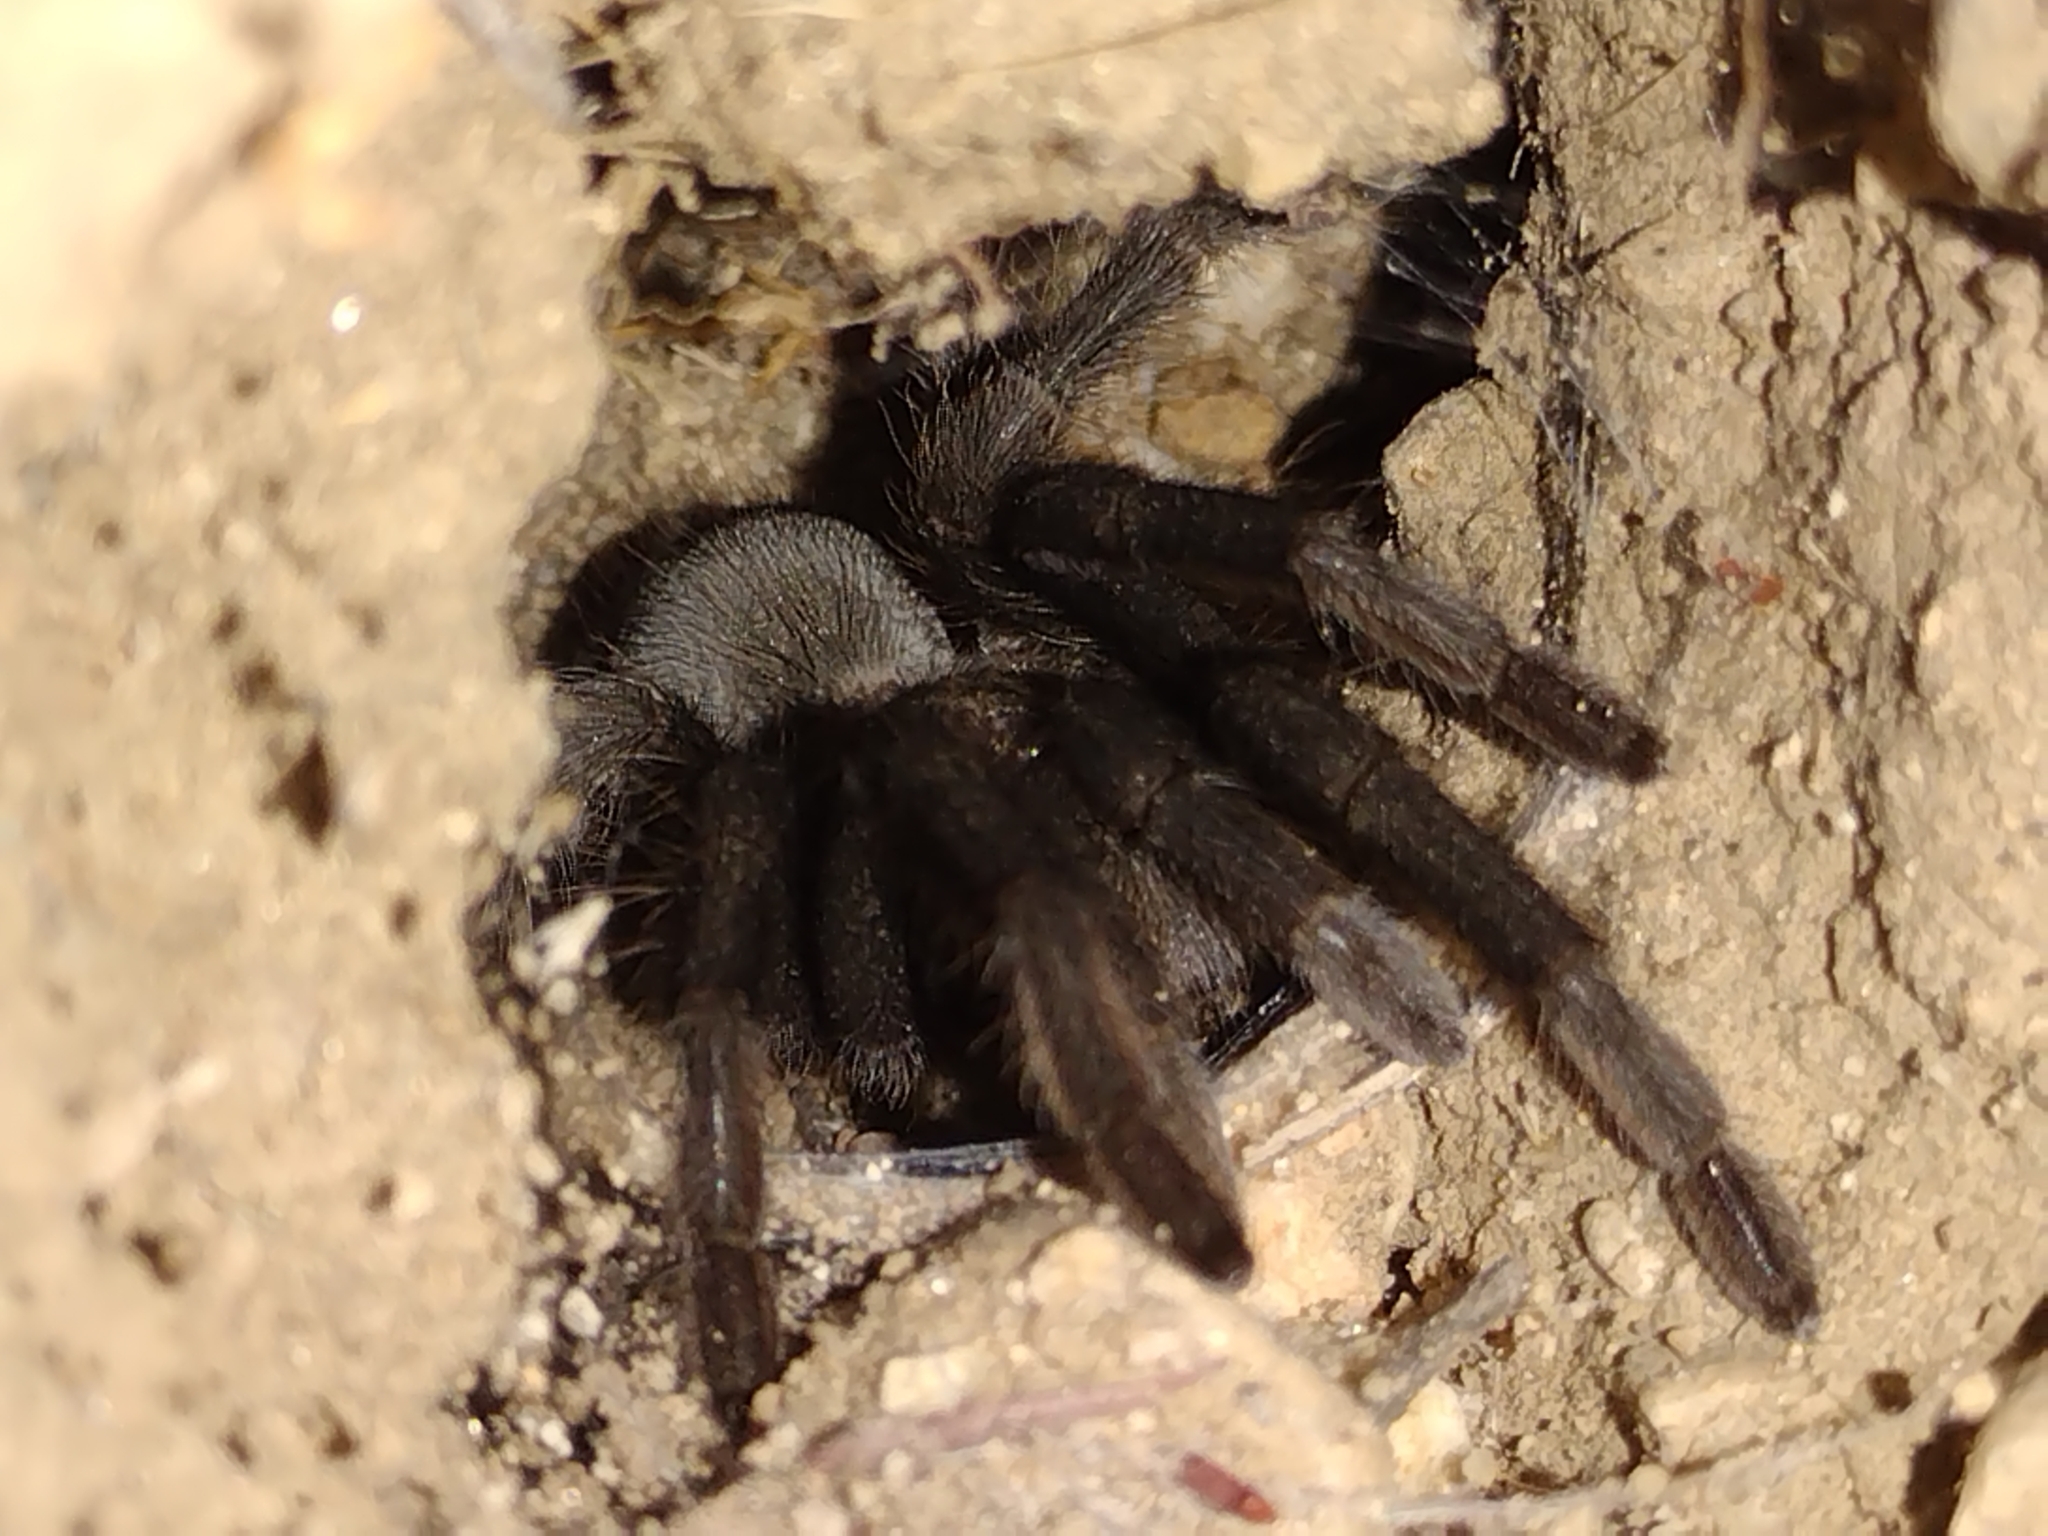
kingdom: Animalia
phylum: Arthropoda
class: Arachnida
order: Araneae
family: Theraphosidae
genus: Aphonopelma
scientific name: Aphonopelma steindachneri
